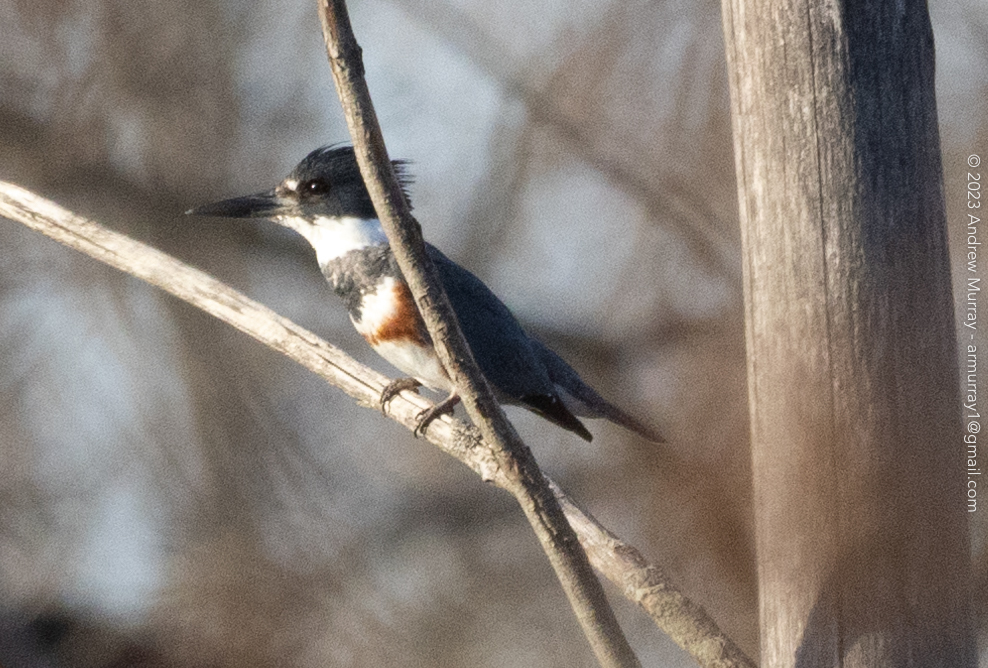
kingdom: Animalia
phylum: Chordata
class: Aves
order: Coraciiformes
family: Alcedinidae
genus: Megaceryle
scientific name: Megaceryle alcyon
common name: Belted kingfisher
